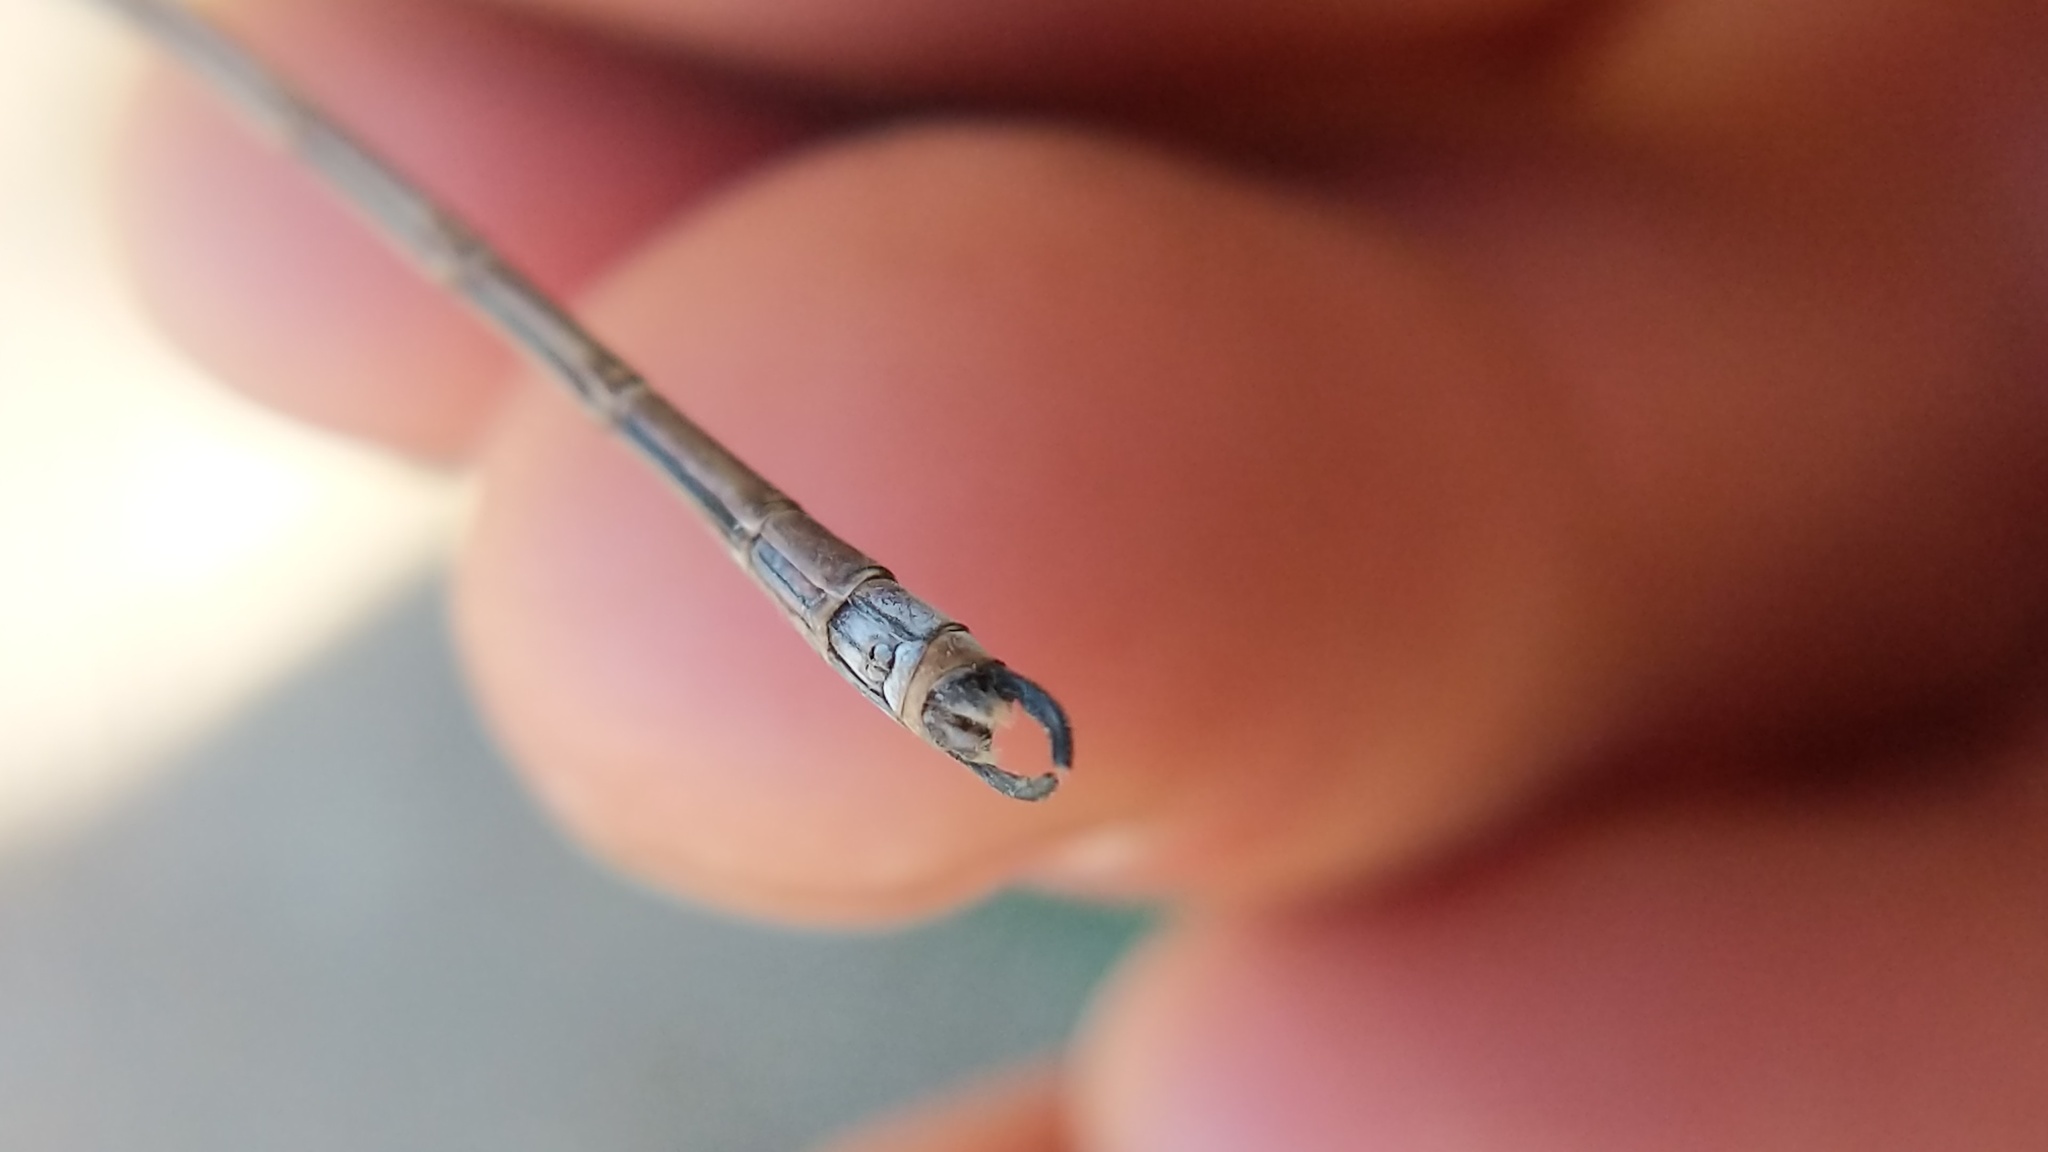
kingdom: Animalia
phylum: Arthropoda
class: Insecta
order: Odonata
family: Lestidae
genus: Archilestes
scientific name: Archilestes californicus
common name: California spreadwing
